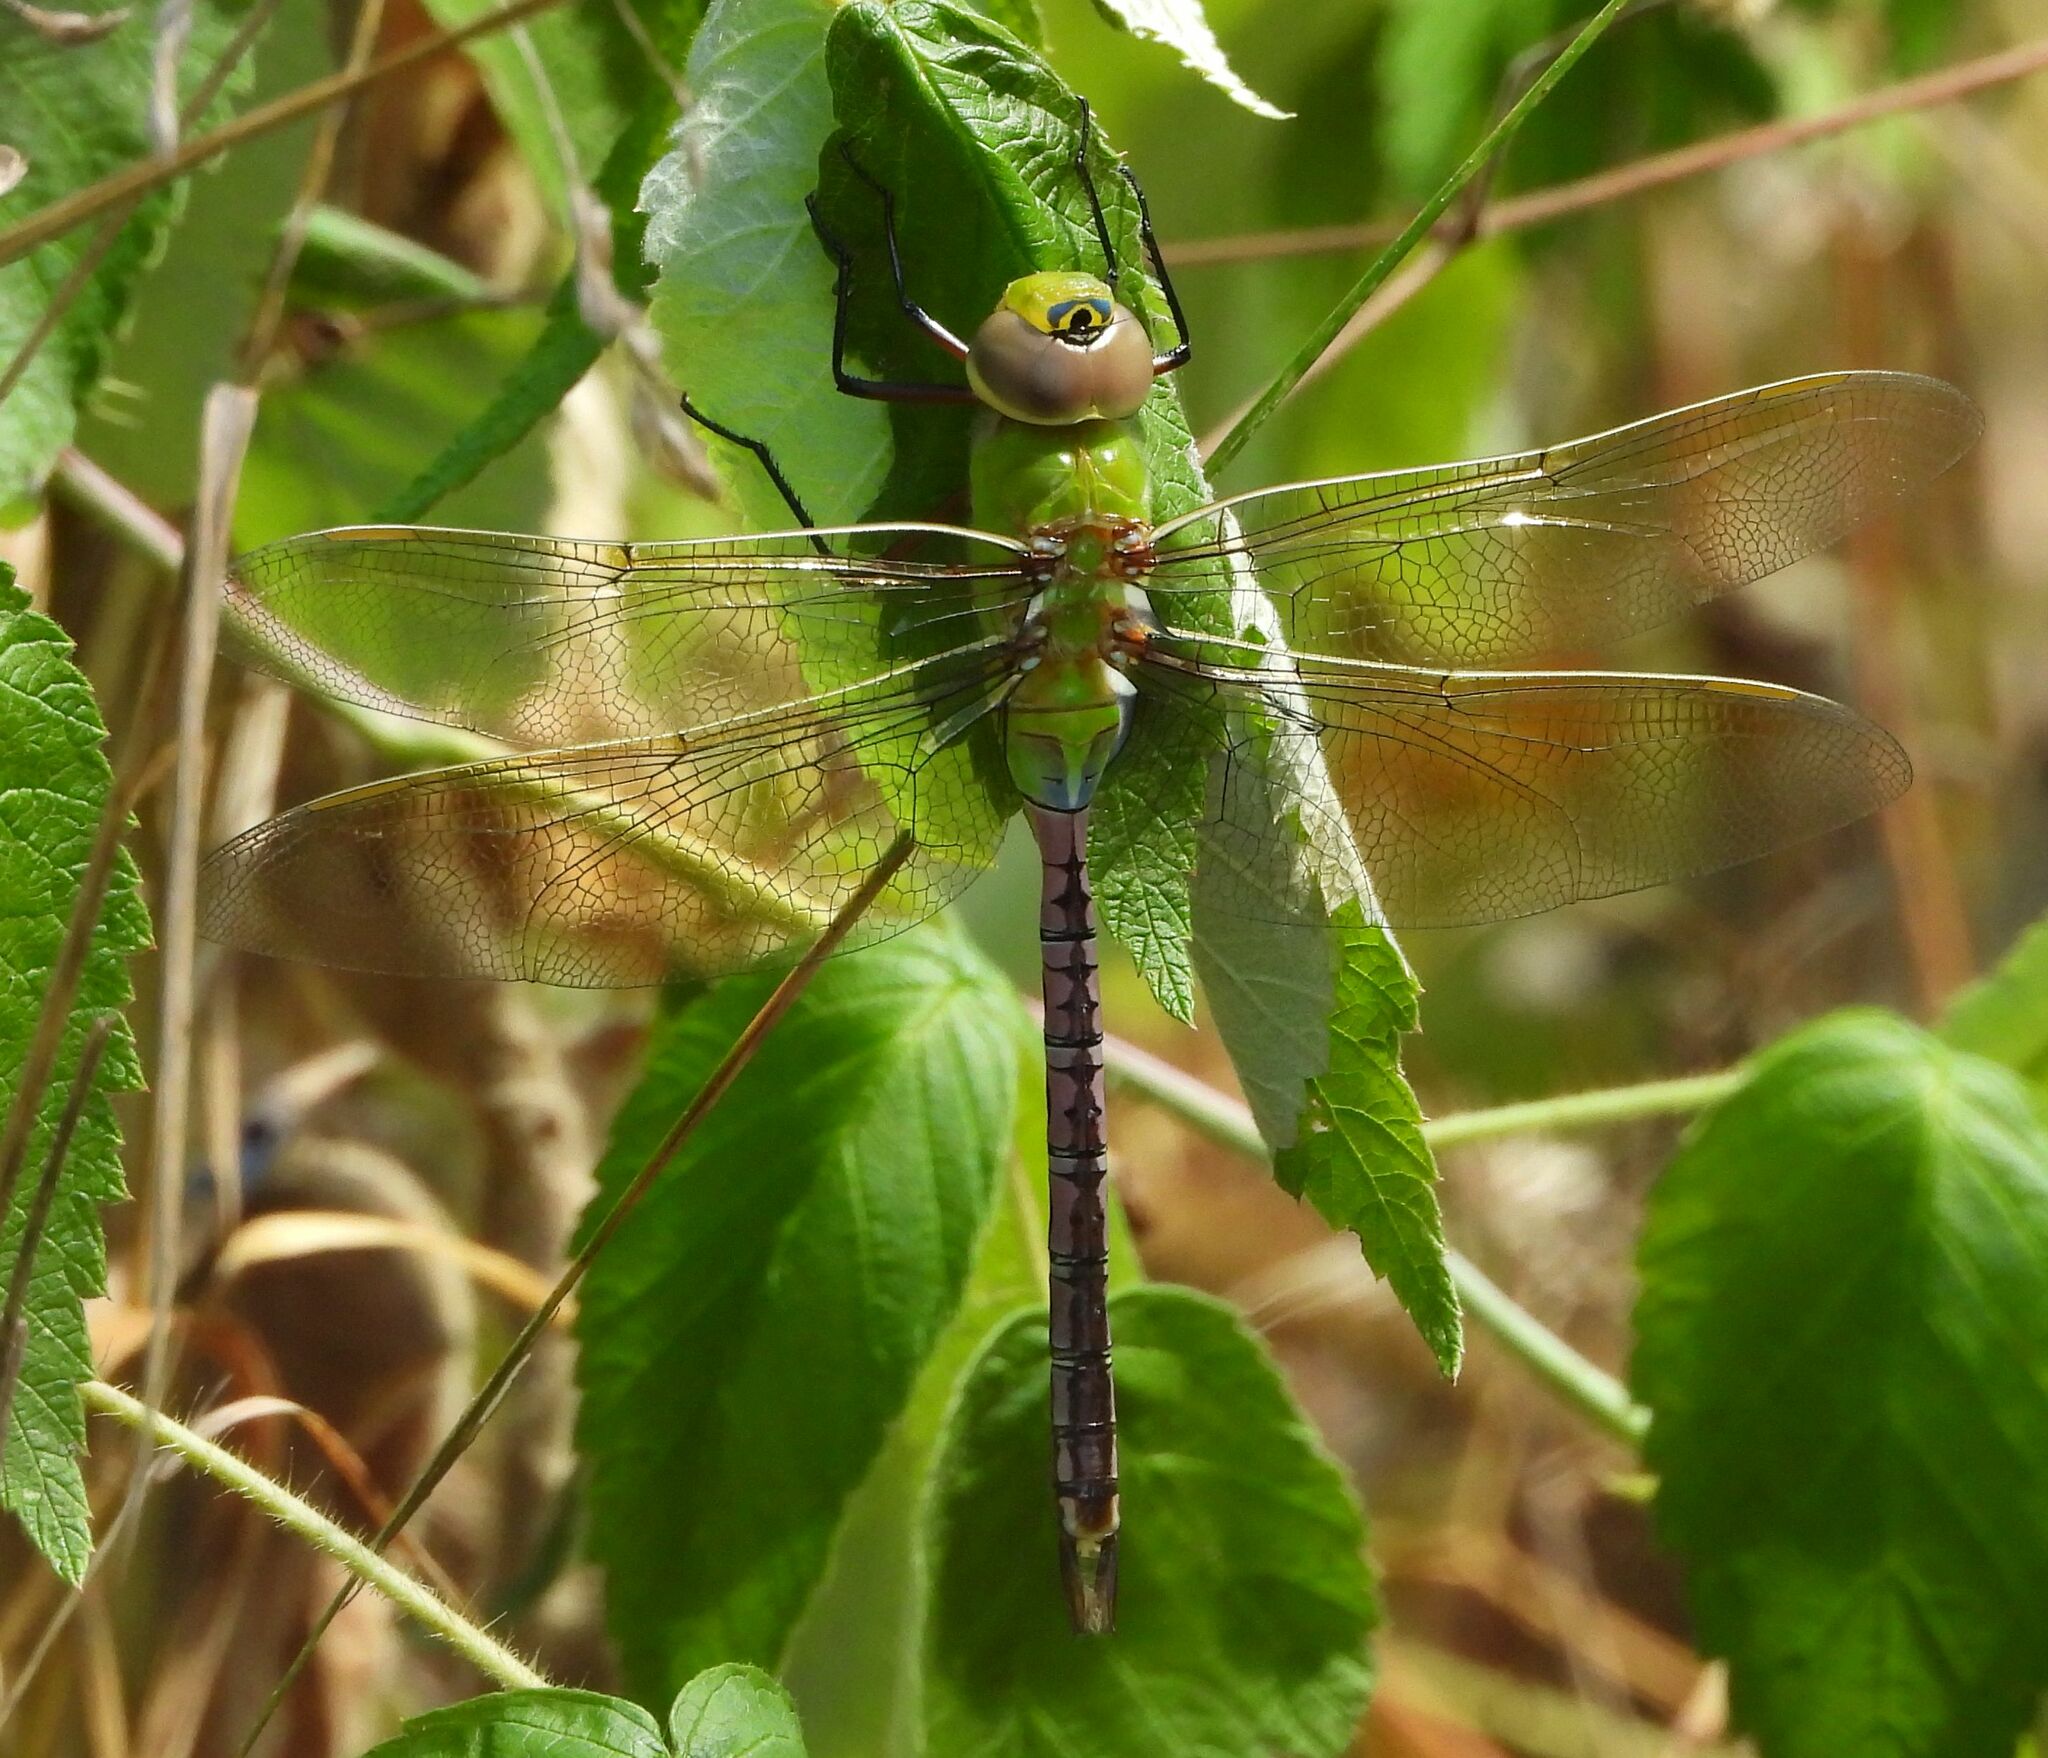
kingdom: Animalia
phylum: Arthropoda
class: Insecta
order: Odonata
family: Aeshnidae
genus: Anax
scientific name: Anax junius
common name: Common green darner
